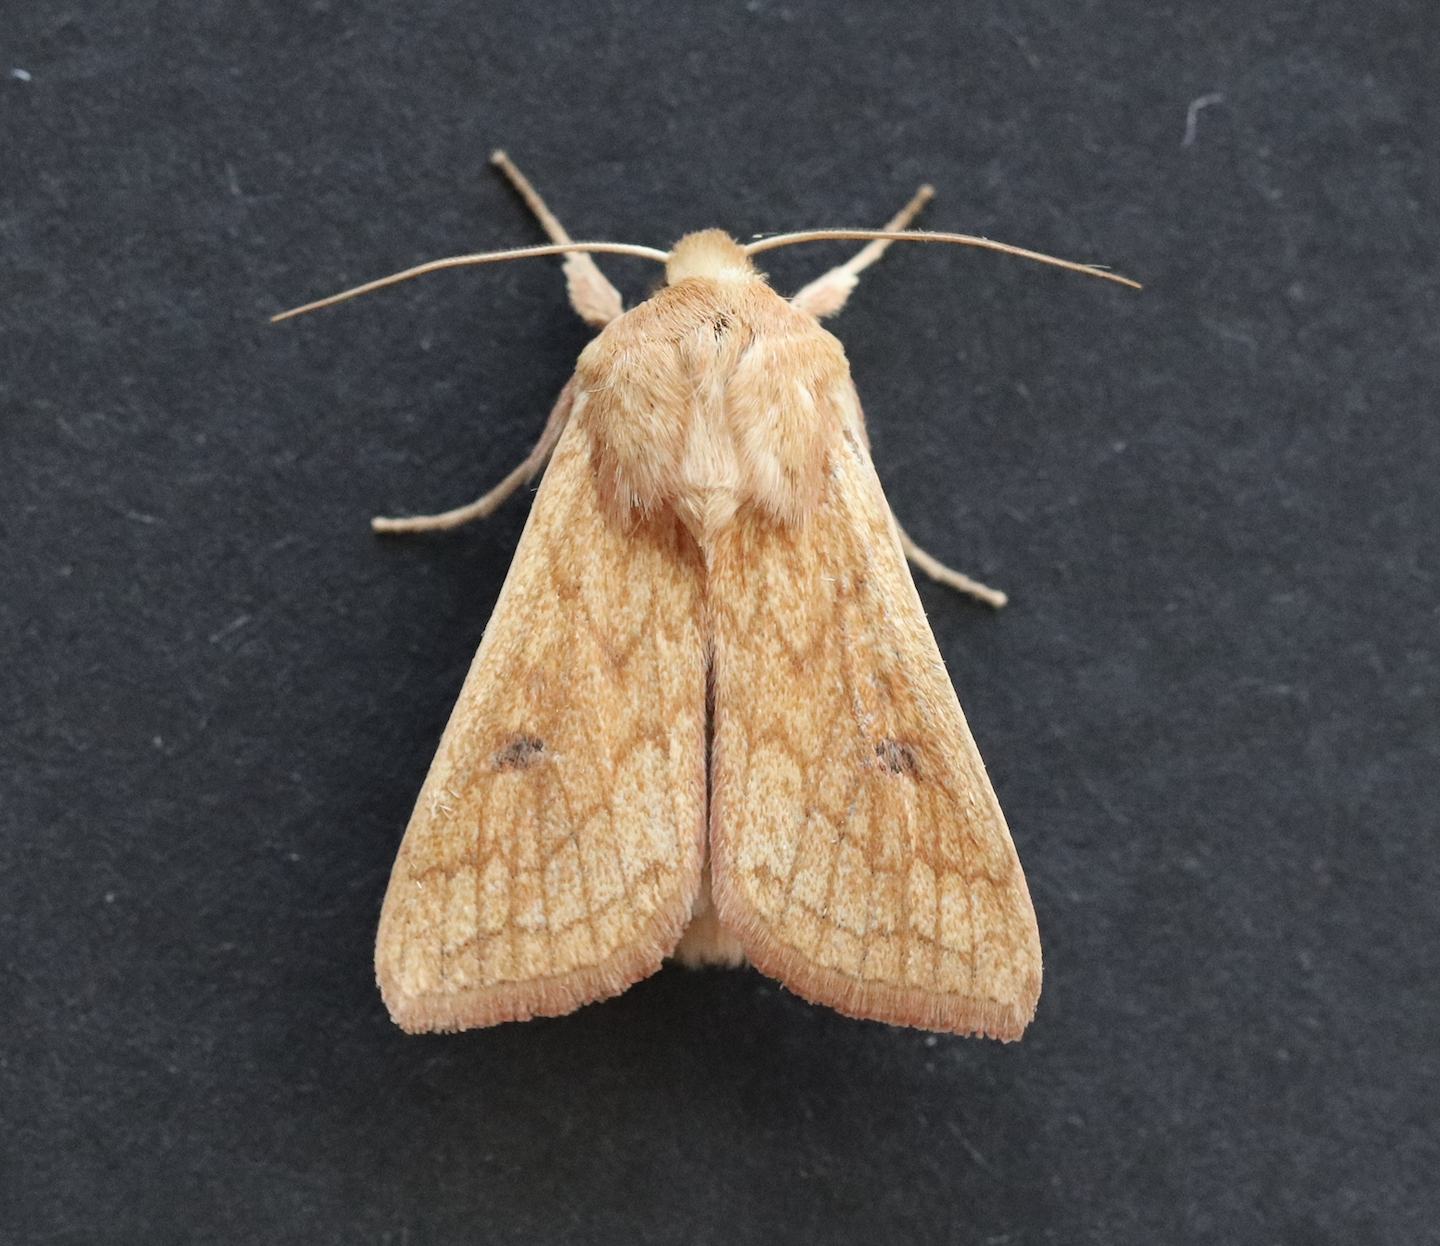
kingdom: Animalia
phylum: Arthropoda
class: Insecta
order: Lepidoptera
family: Noctuidae
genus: Mythimna
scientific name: Mythimna vitellina
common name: Delicate
